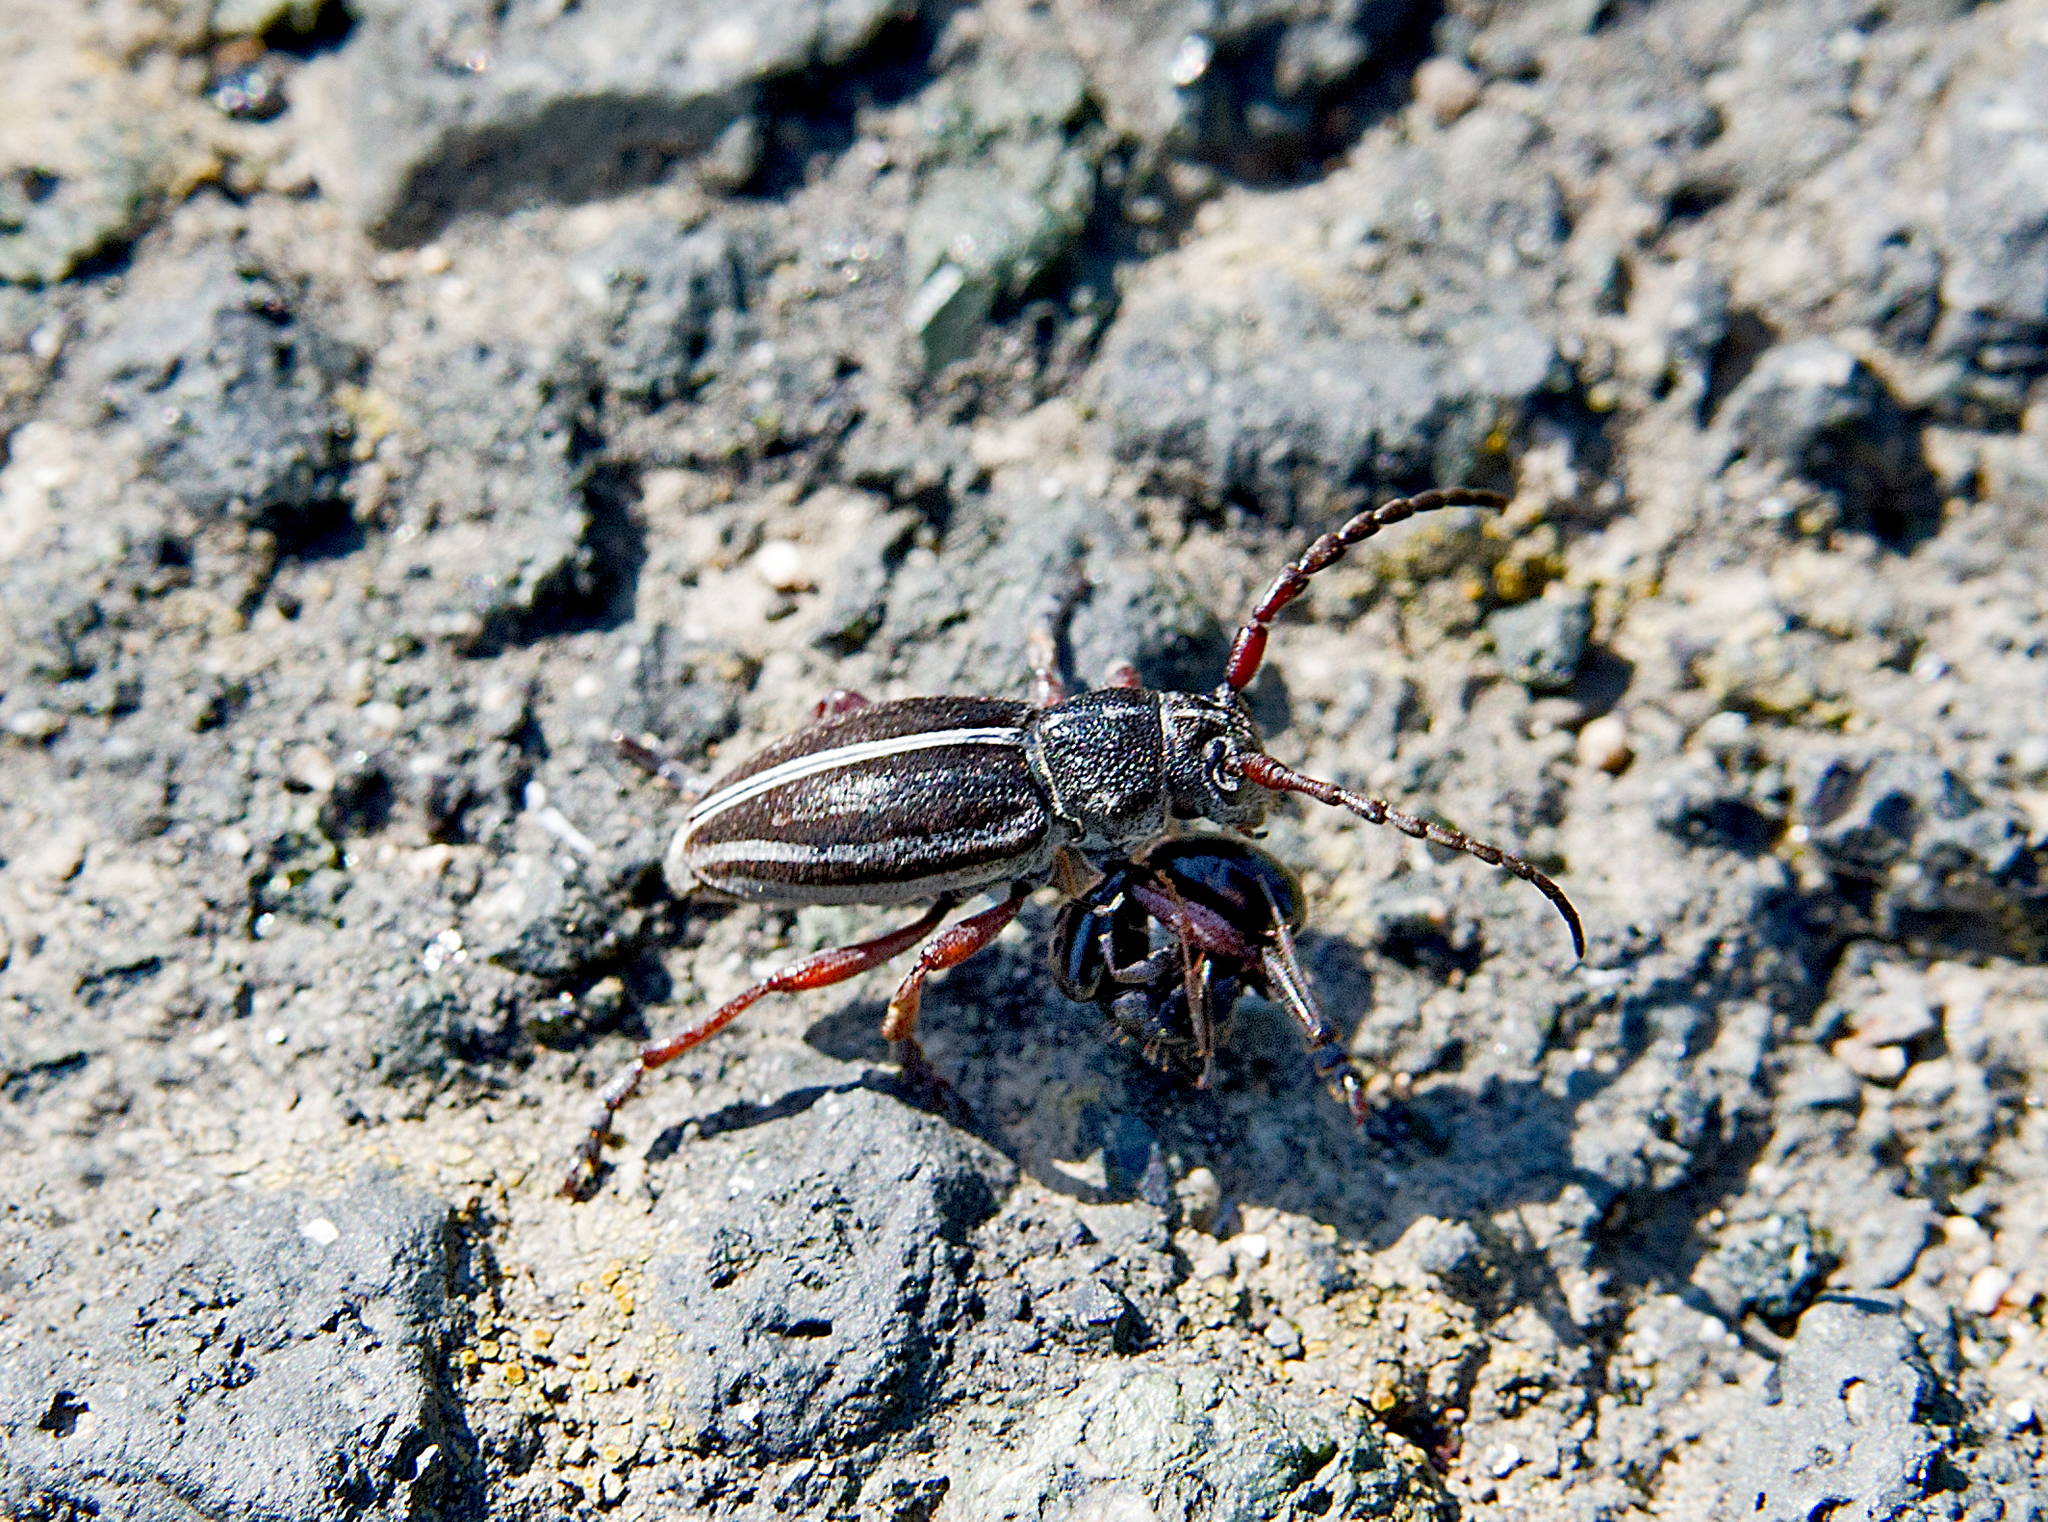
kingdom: Animalia
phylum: Arthropoda
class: Insecta
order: Coleoptera
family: Cerambycidae
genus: Dorcadion
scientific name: Dorcadion pedestre
